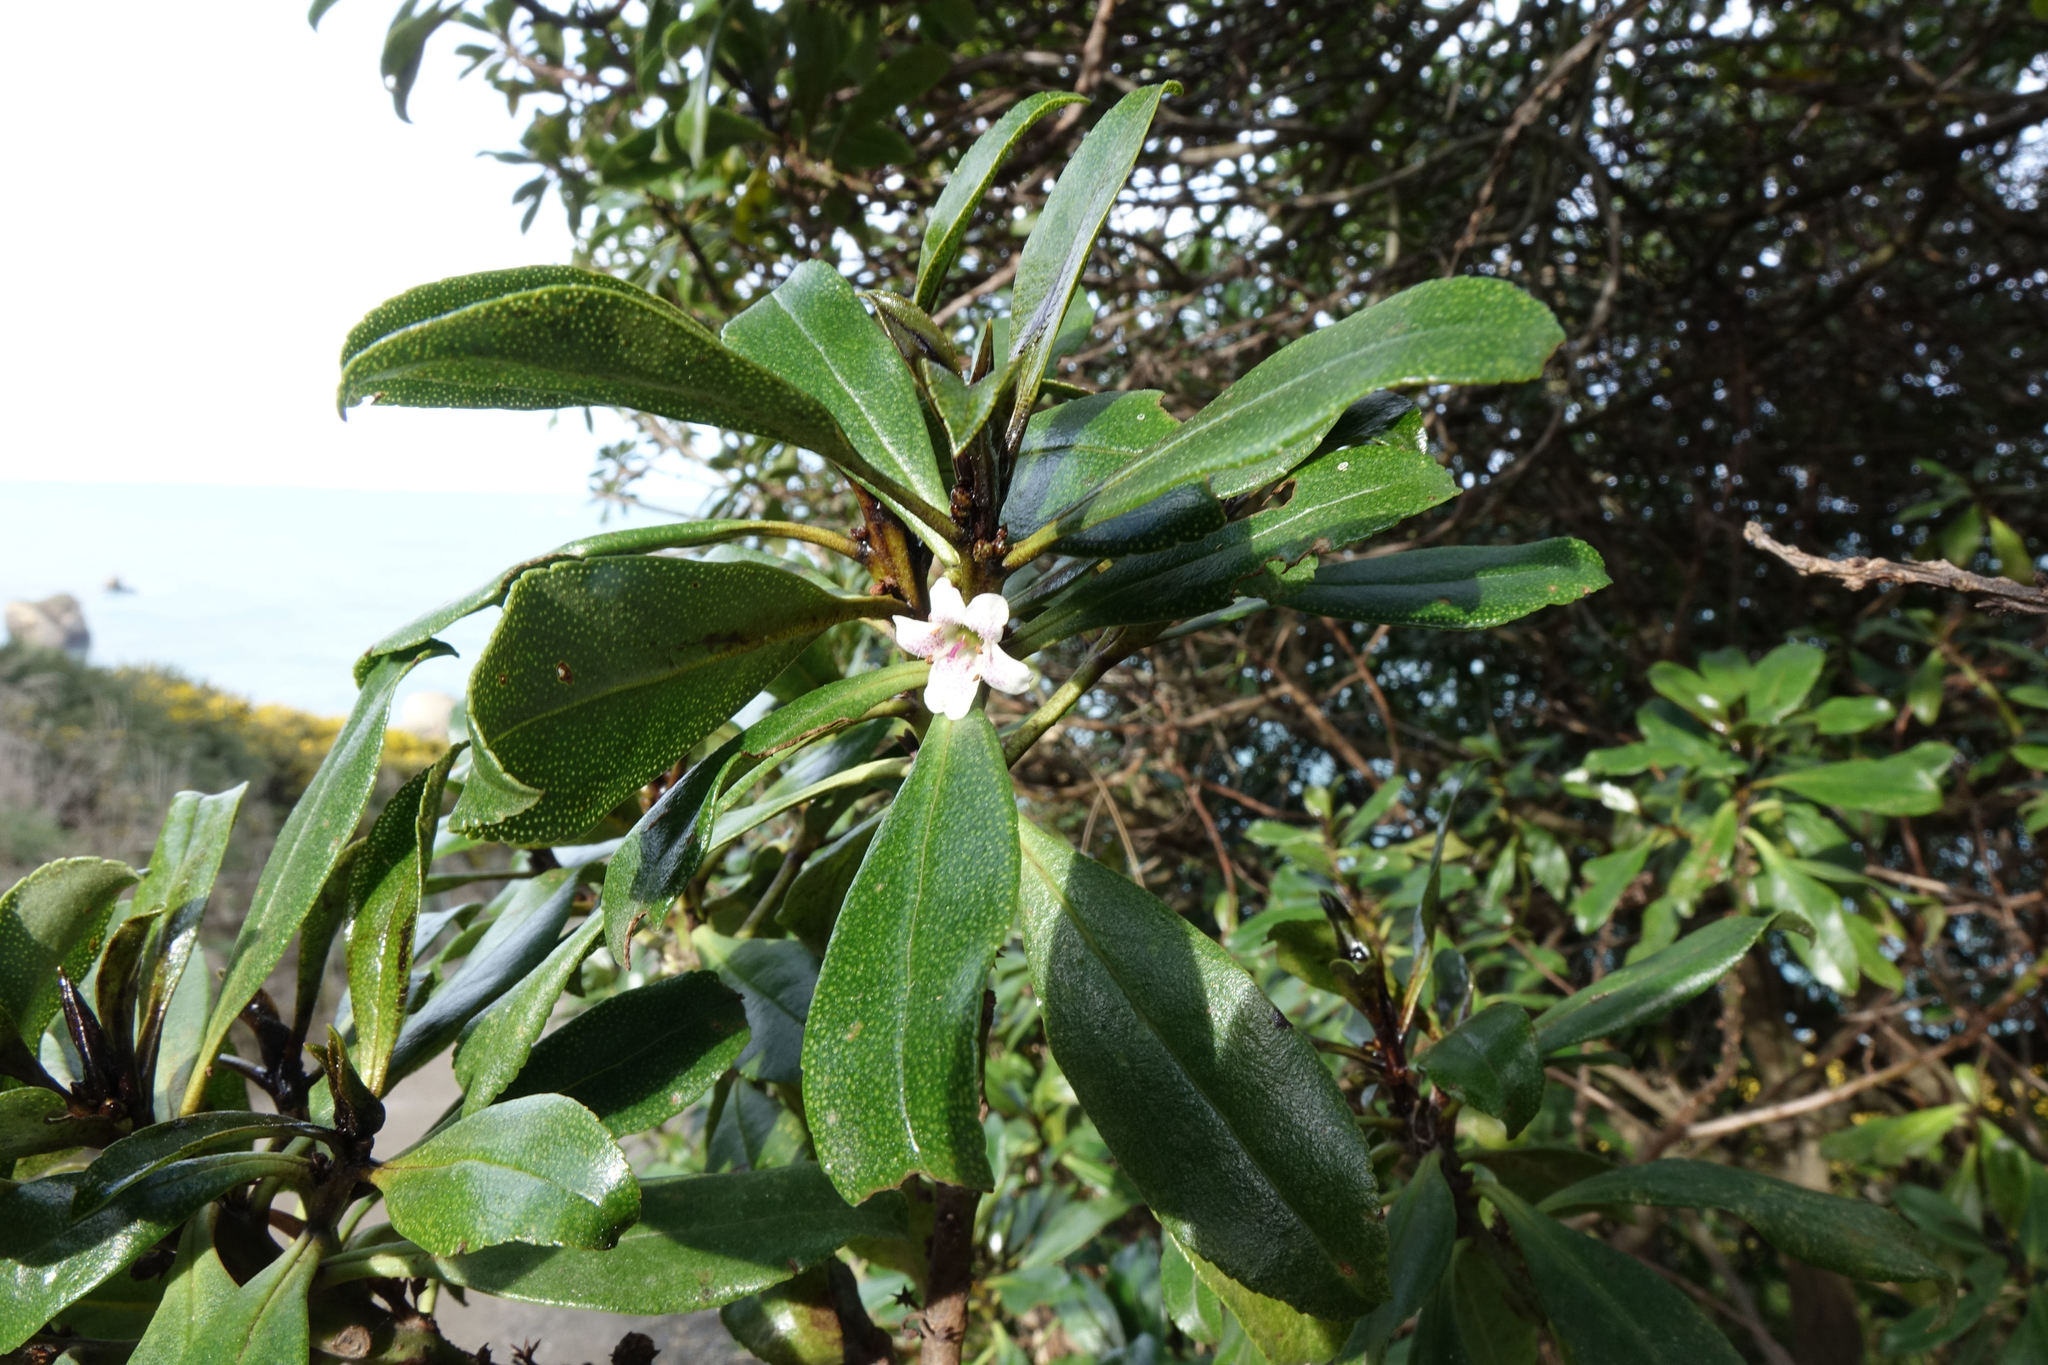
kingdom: Plantae
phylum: Tracheophyta
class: Magnoliopsida
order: Lamiales
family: Scrophulariaceae
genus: Myoporum
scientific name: Myoporum laetum
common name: Ngaio tree
